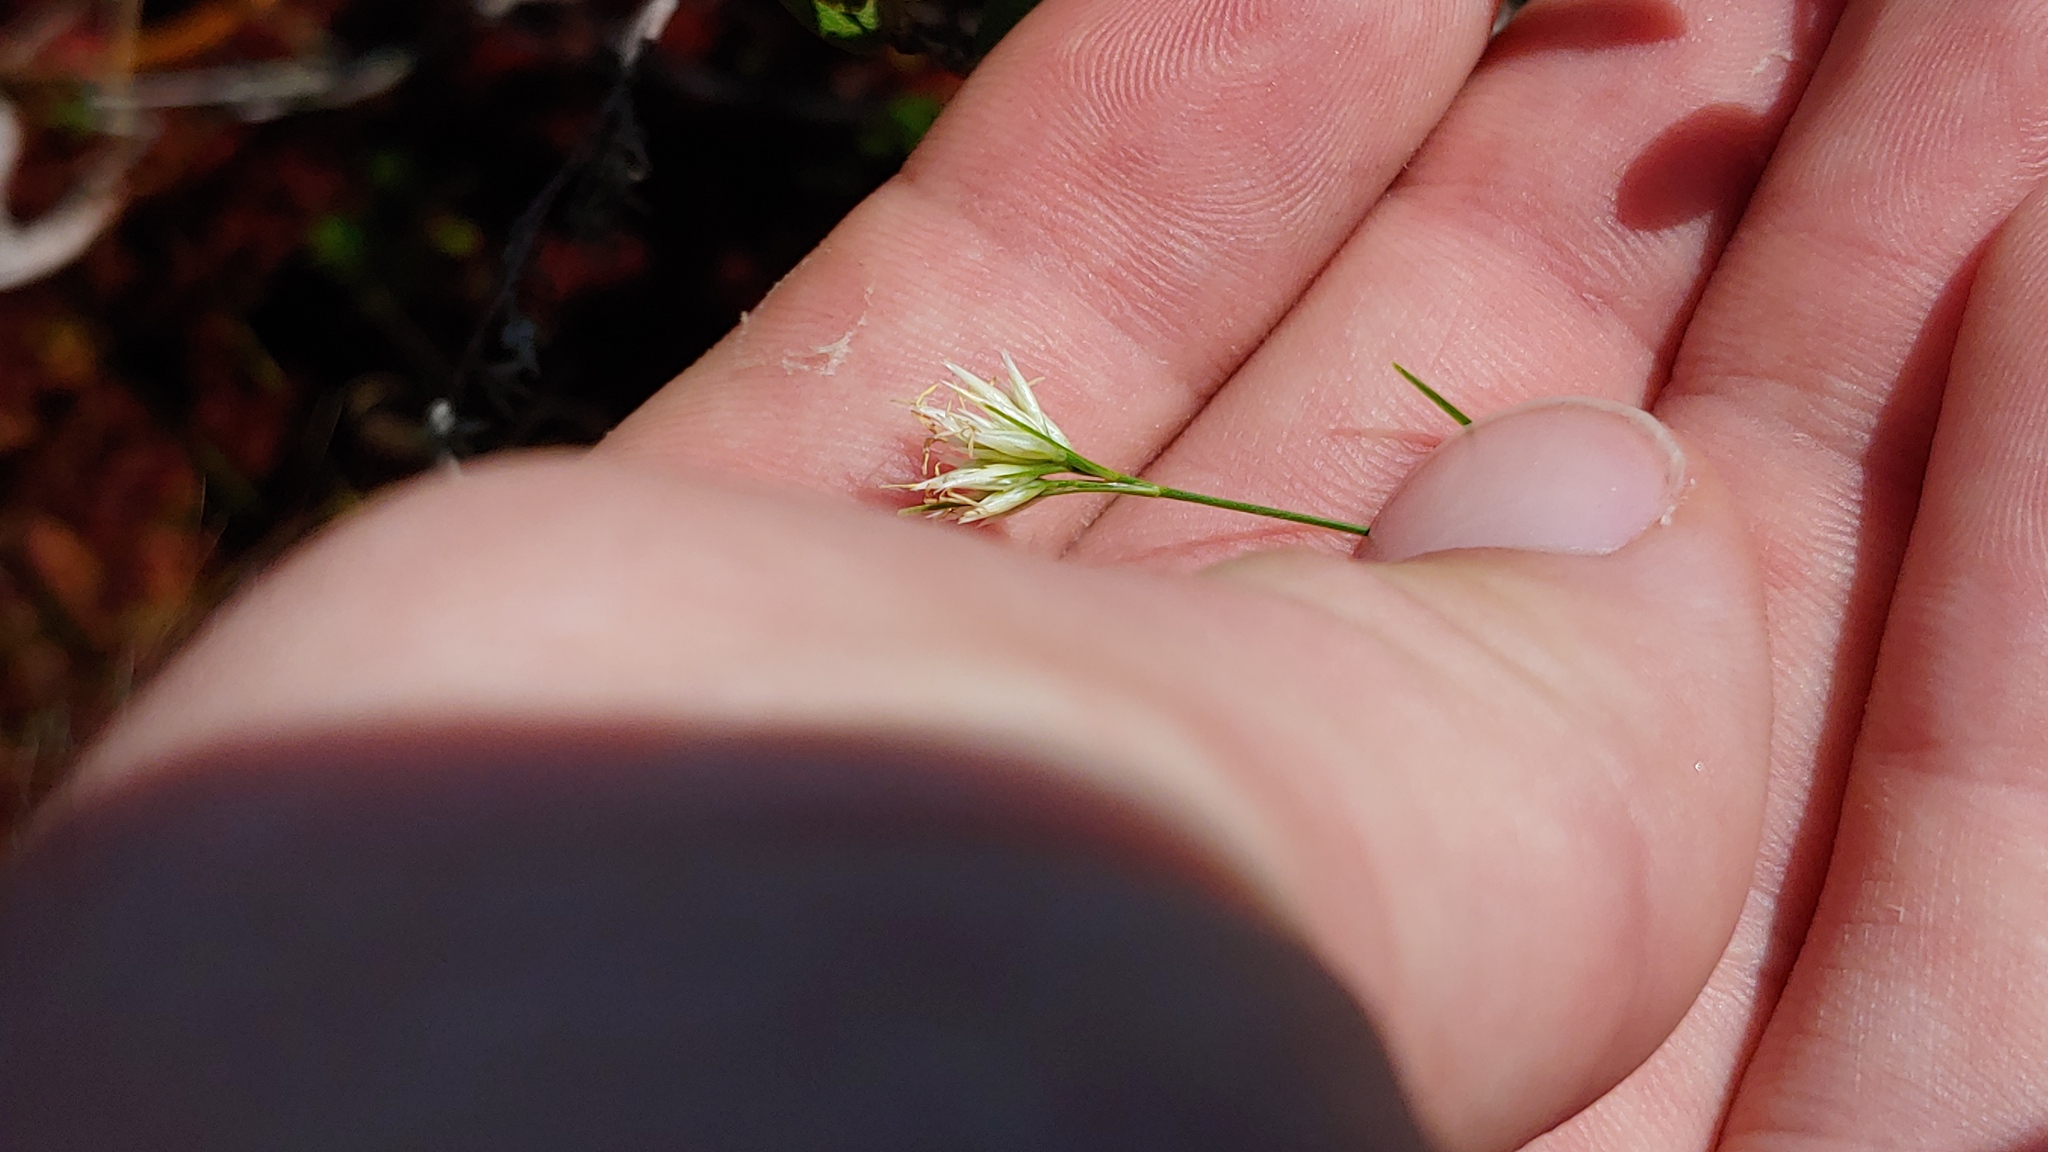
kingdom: Plantae
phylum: Tracheophyta
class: Liliopsida
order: Poales
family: Cyperaceae
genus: Rhynchospora
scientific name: Rhynchospora alba
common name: White beak-sedge
